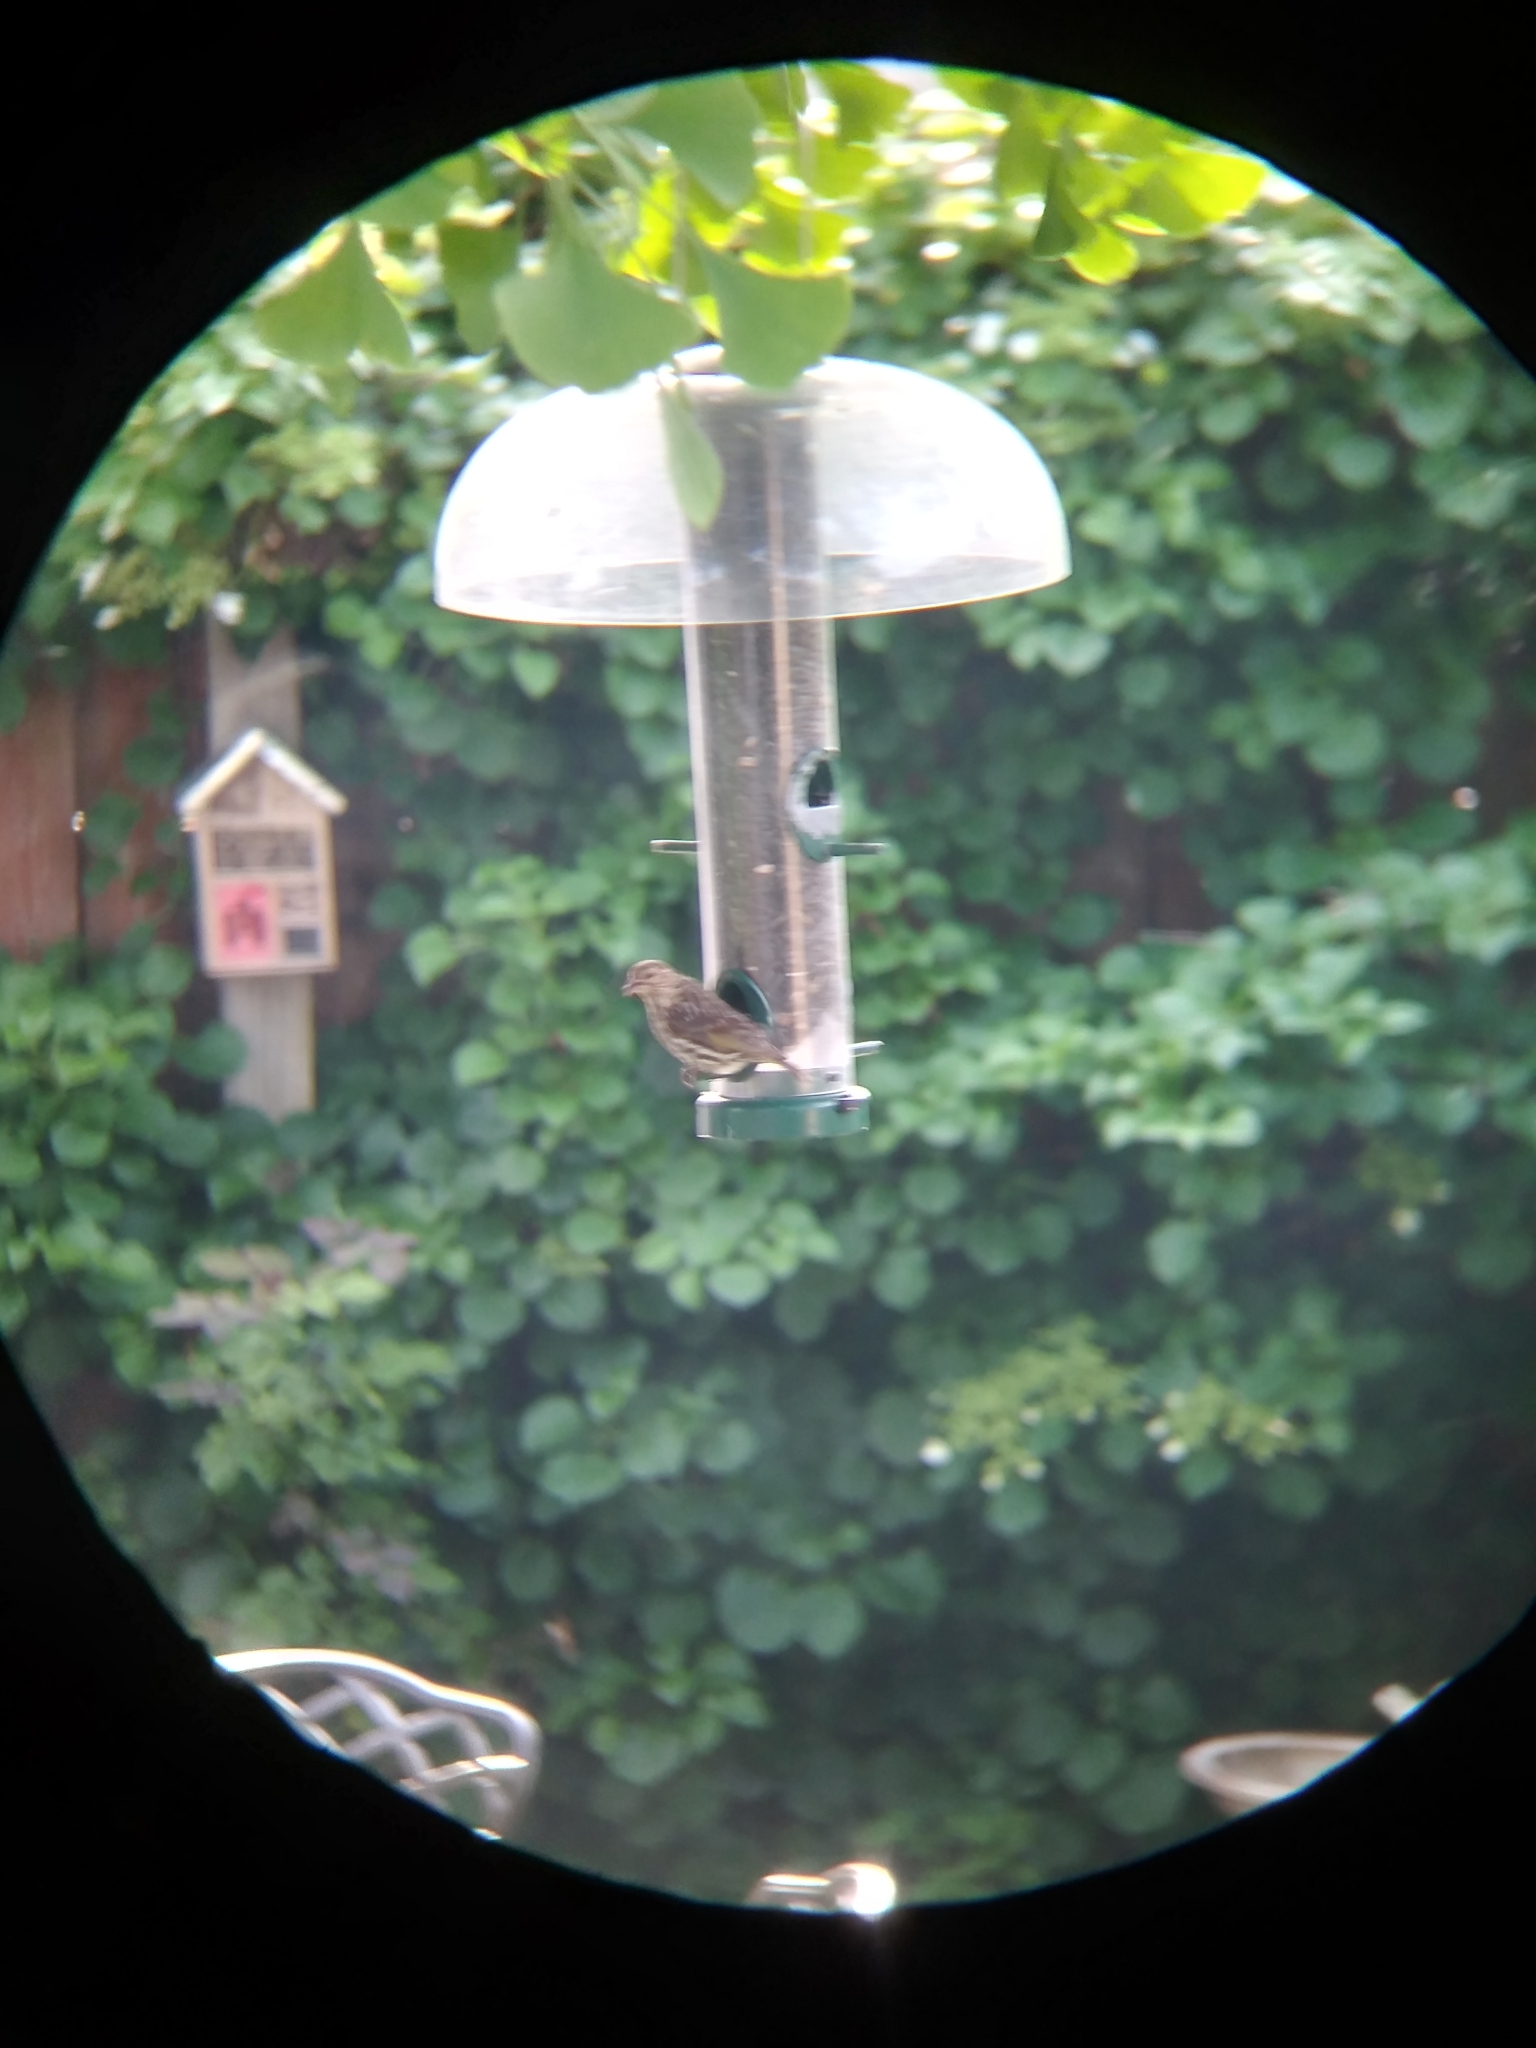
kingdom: Animalia
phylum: Chordata
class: Aves
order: Passeriformes
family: Fringillidae
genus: Spinus
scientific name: Spinus pinus
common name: Pine siskin
